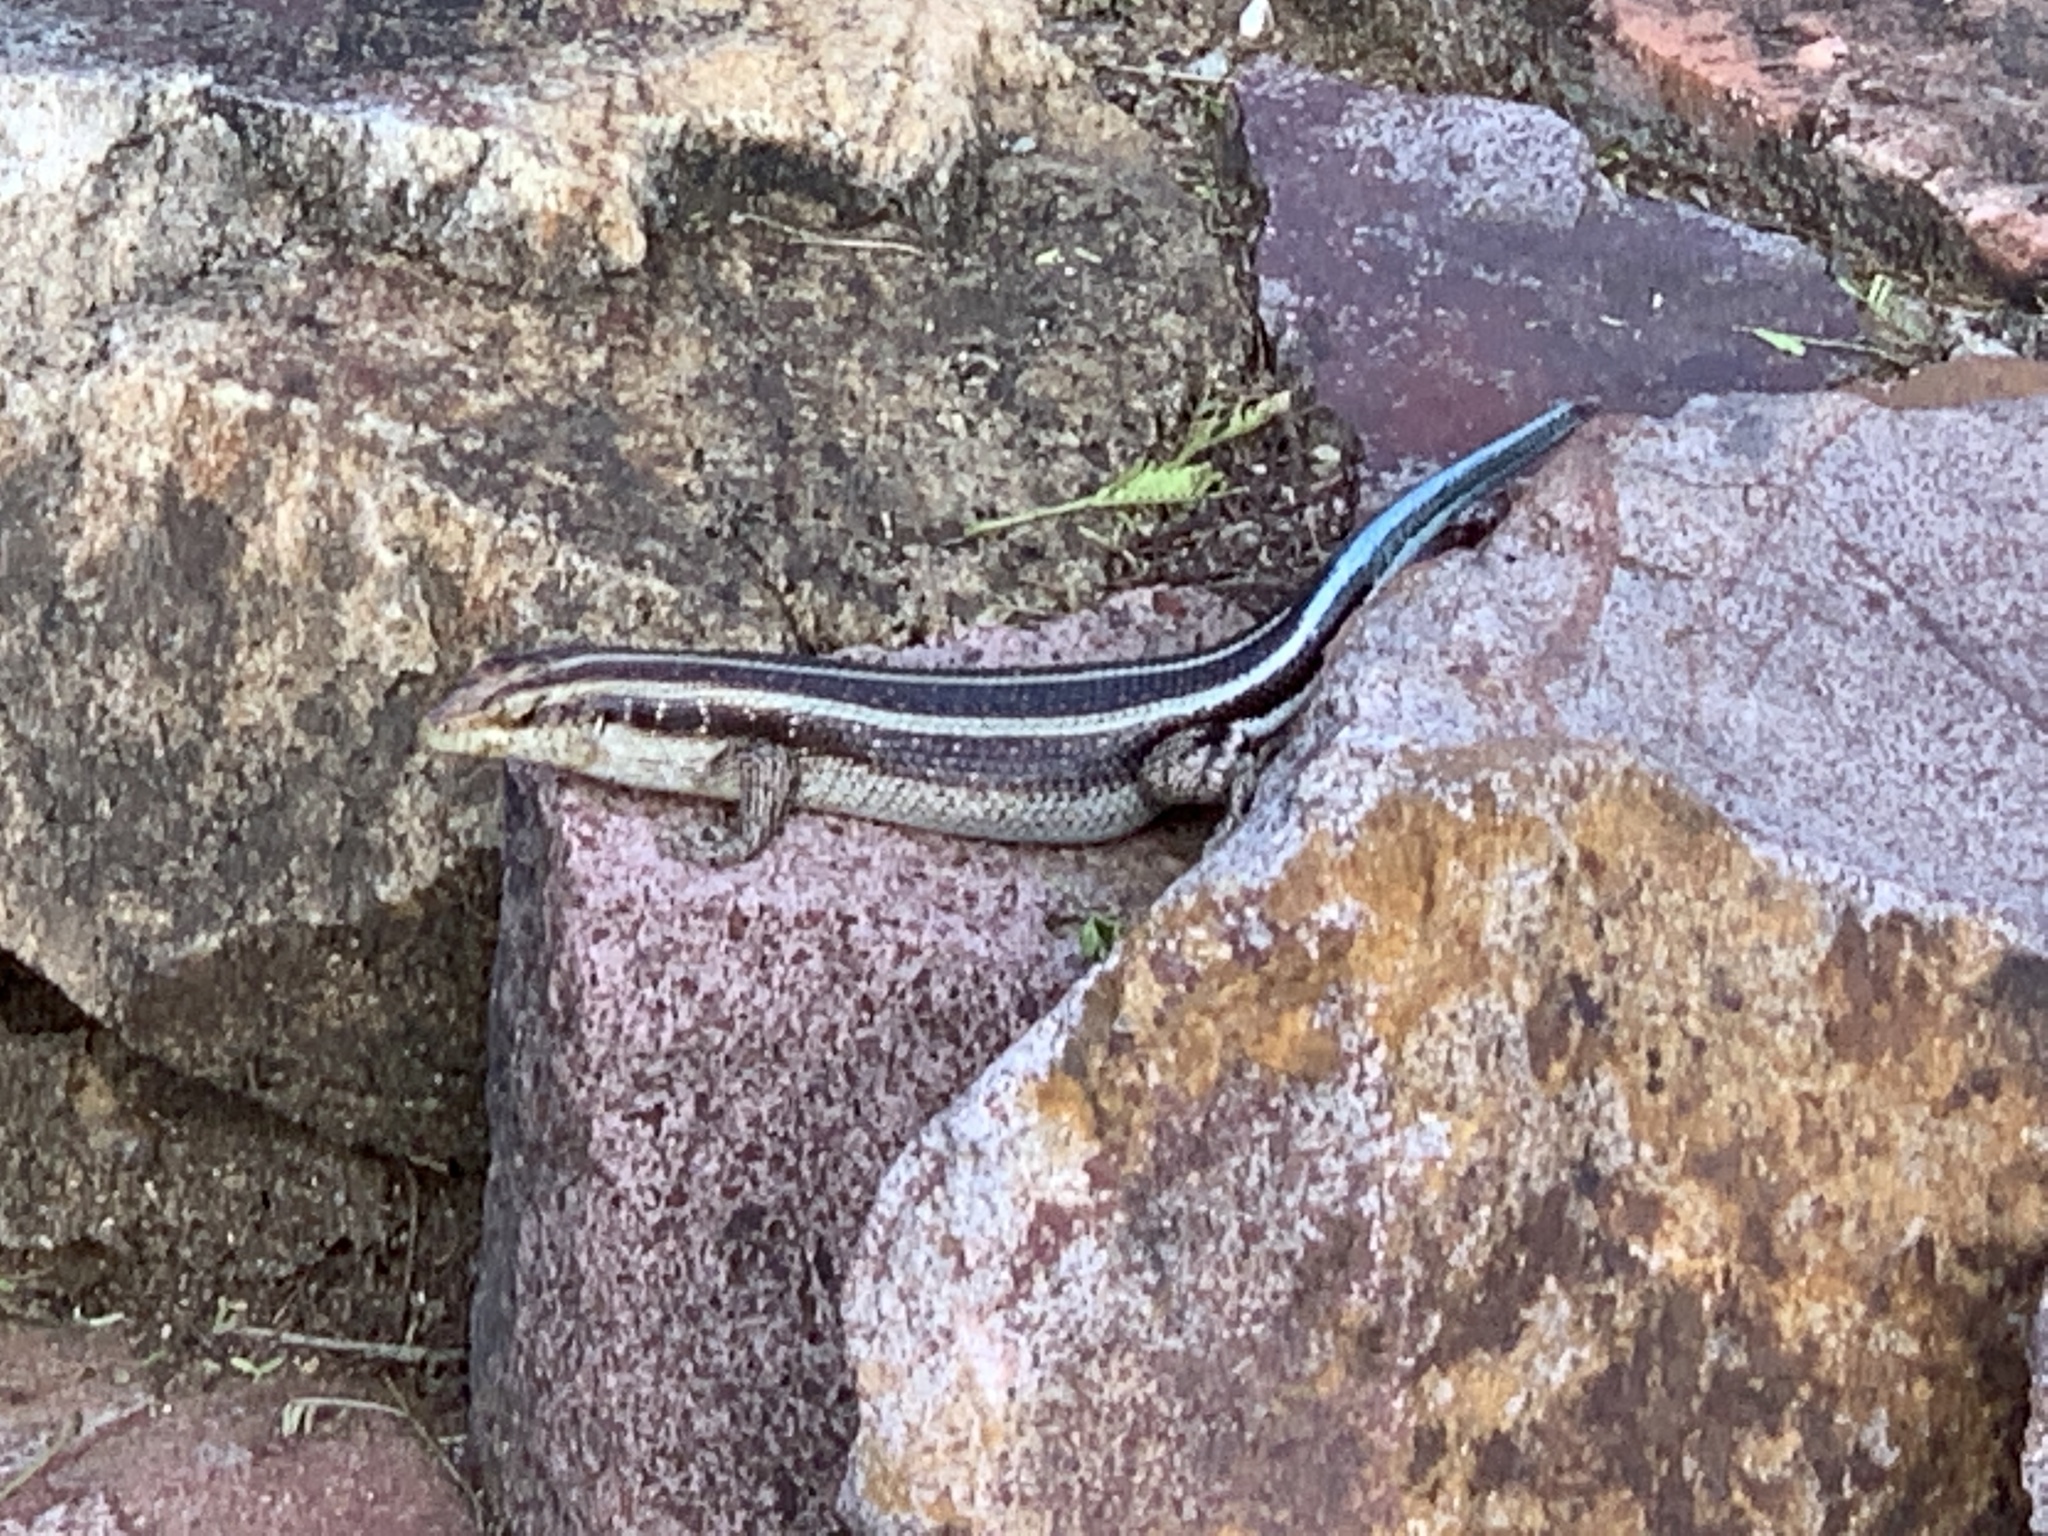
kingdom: Animalia
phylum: Chordata
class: Squamata
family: Scincidae
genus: Trachylepis
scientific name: Trachylepis margaritifera
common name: Rainbow skink
